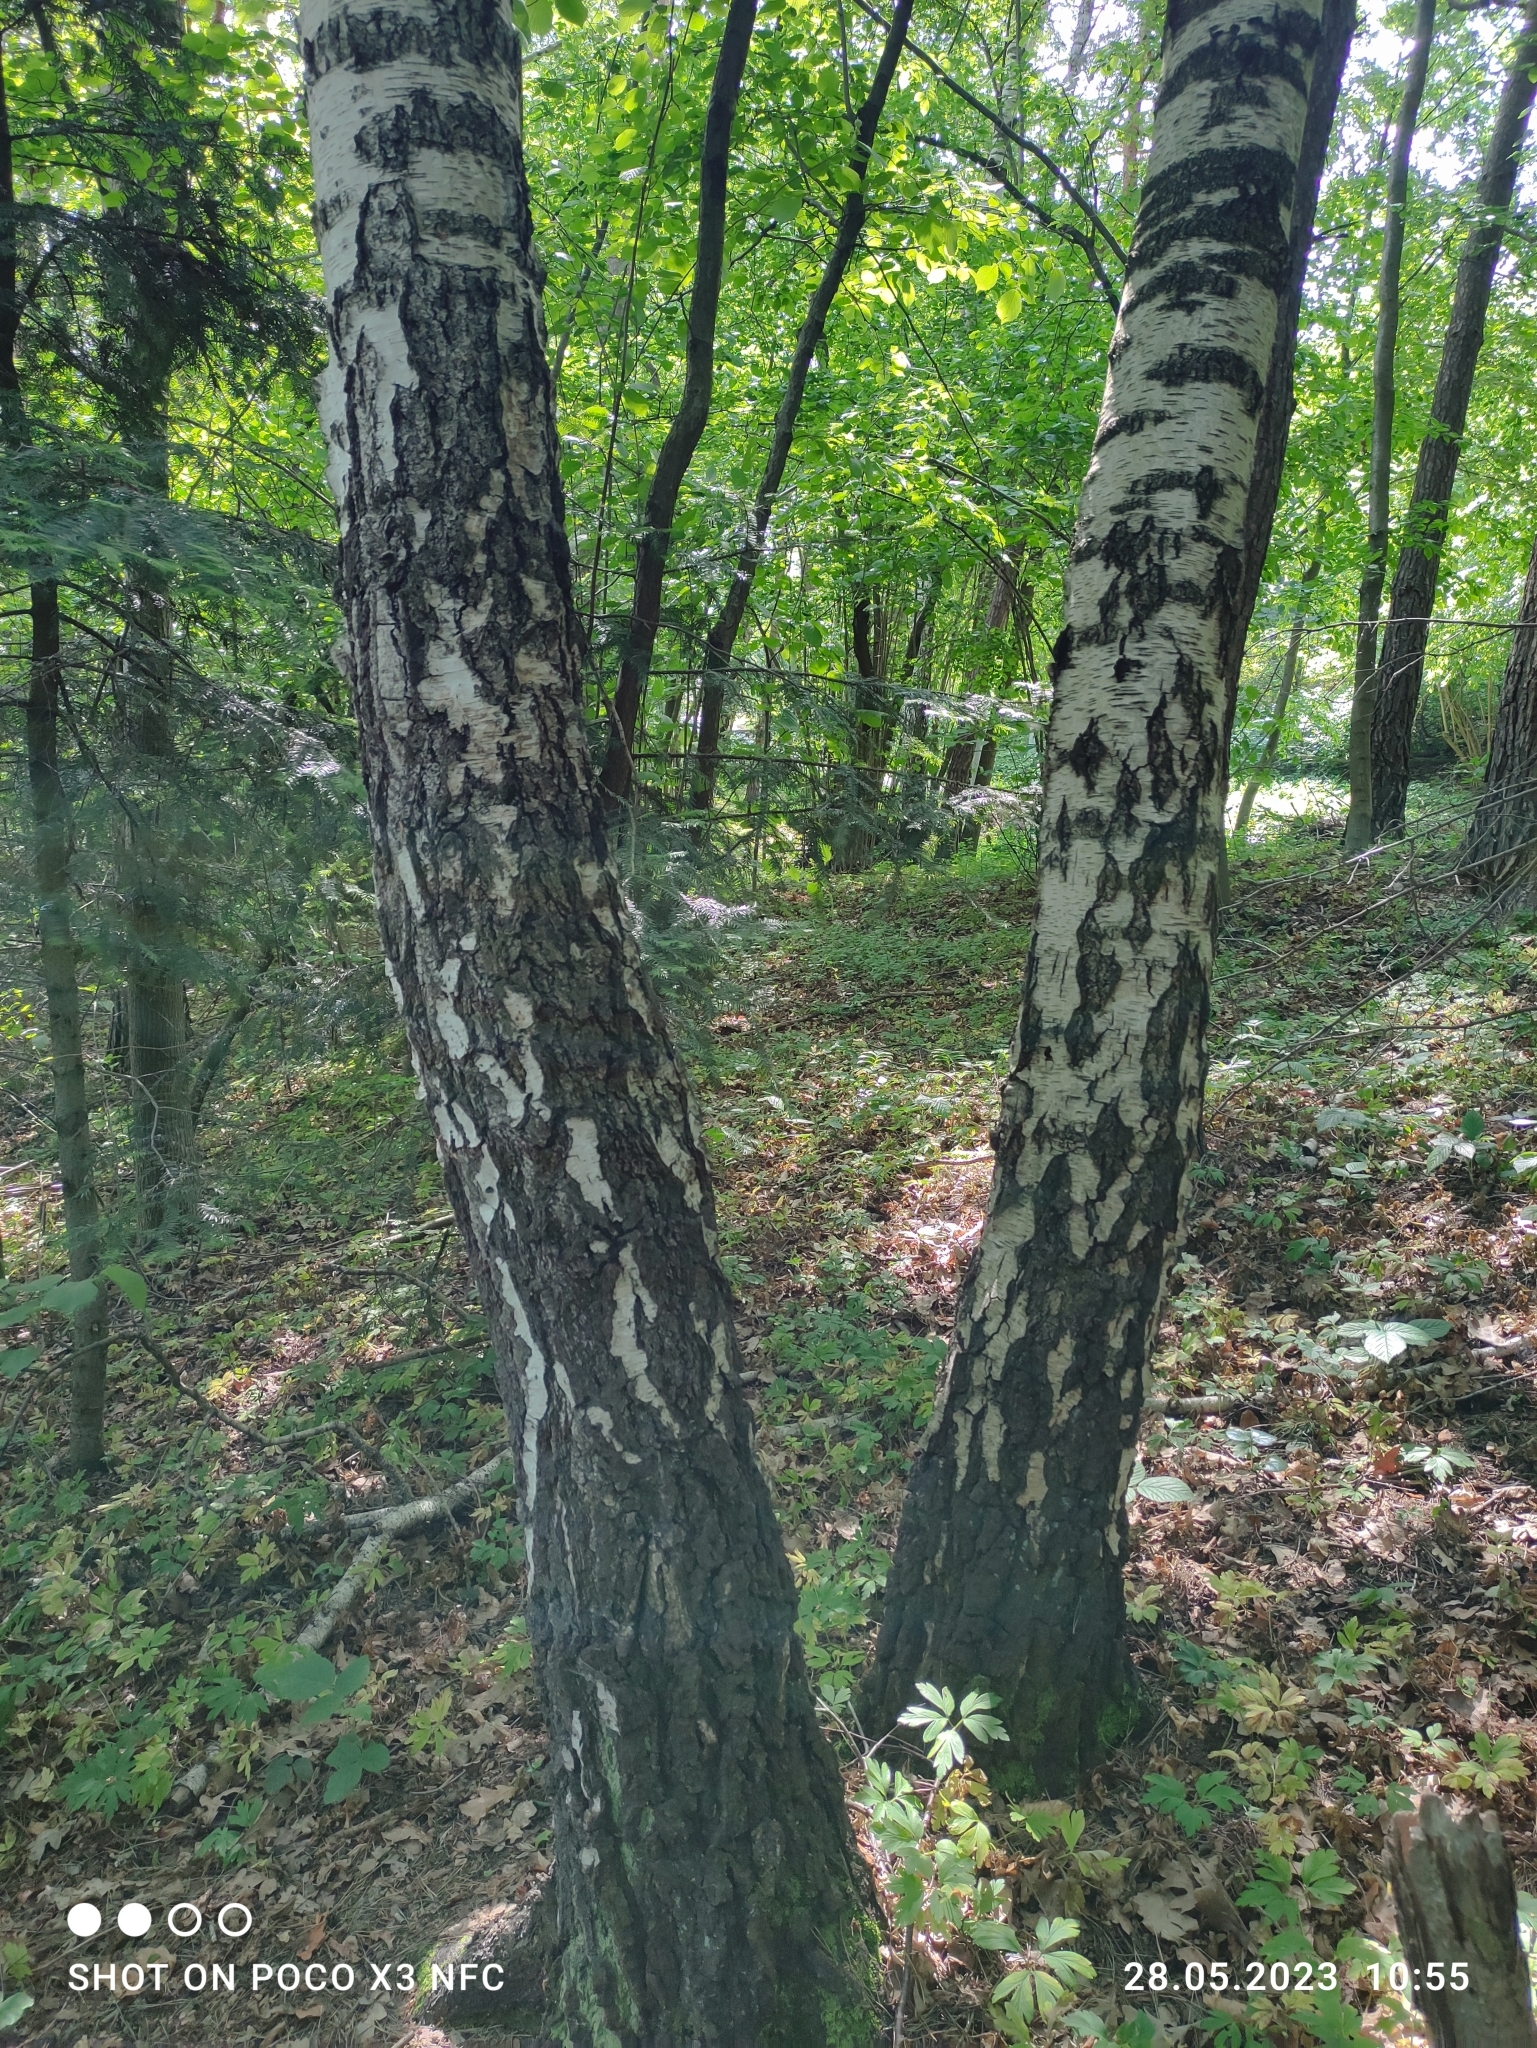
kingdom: Plantae
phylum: Tracheophyta
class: Magnoliopsida
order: Fagales
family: Betulaceae
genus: Betula
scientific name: Betula pendula
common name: Silver birch
